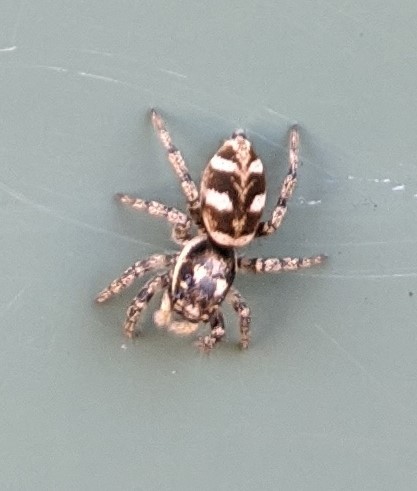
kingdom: Animalia
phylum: Arthropoda
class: Arachnida
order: Araneae
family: Salticidae
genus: Salticus
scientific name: Salticus scenicus
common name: Zebra jumper
